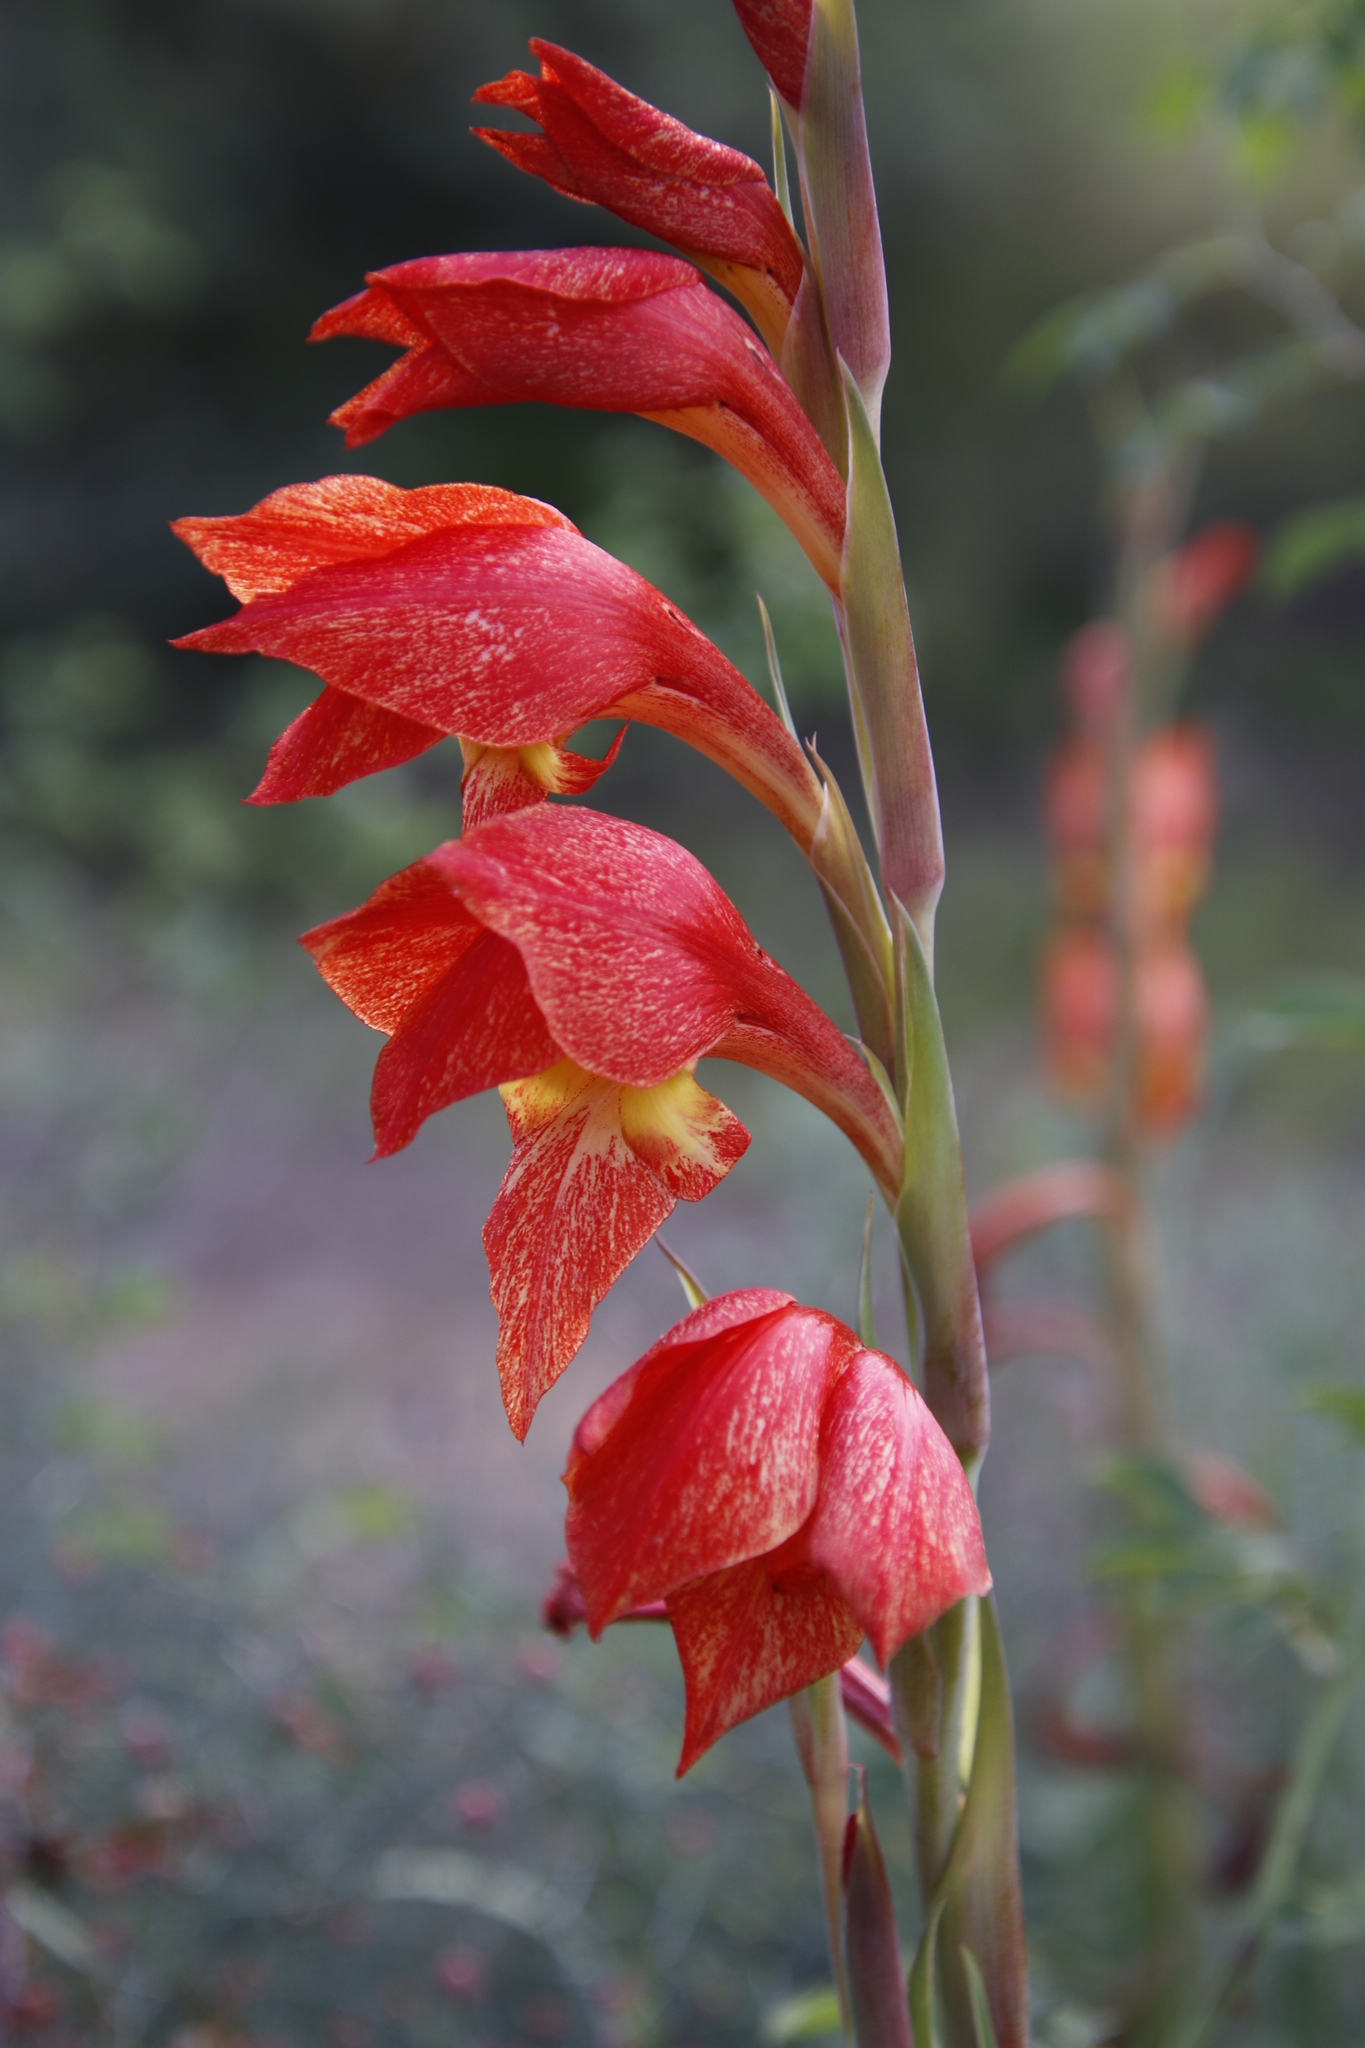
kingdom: Plantae
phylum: Tracheophyta
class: Liliopsida
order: Asparagales
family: Iridaceae
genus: Gladiolus
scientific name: Gladiolus dalenii
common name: Cornflag
